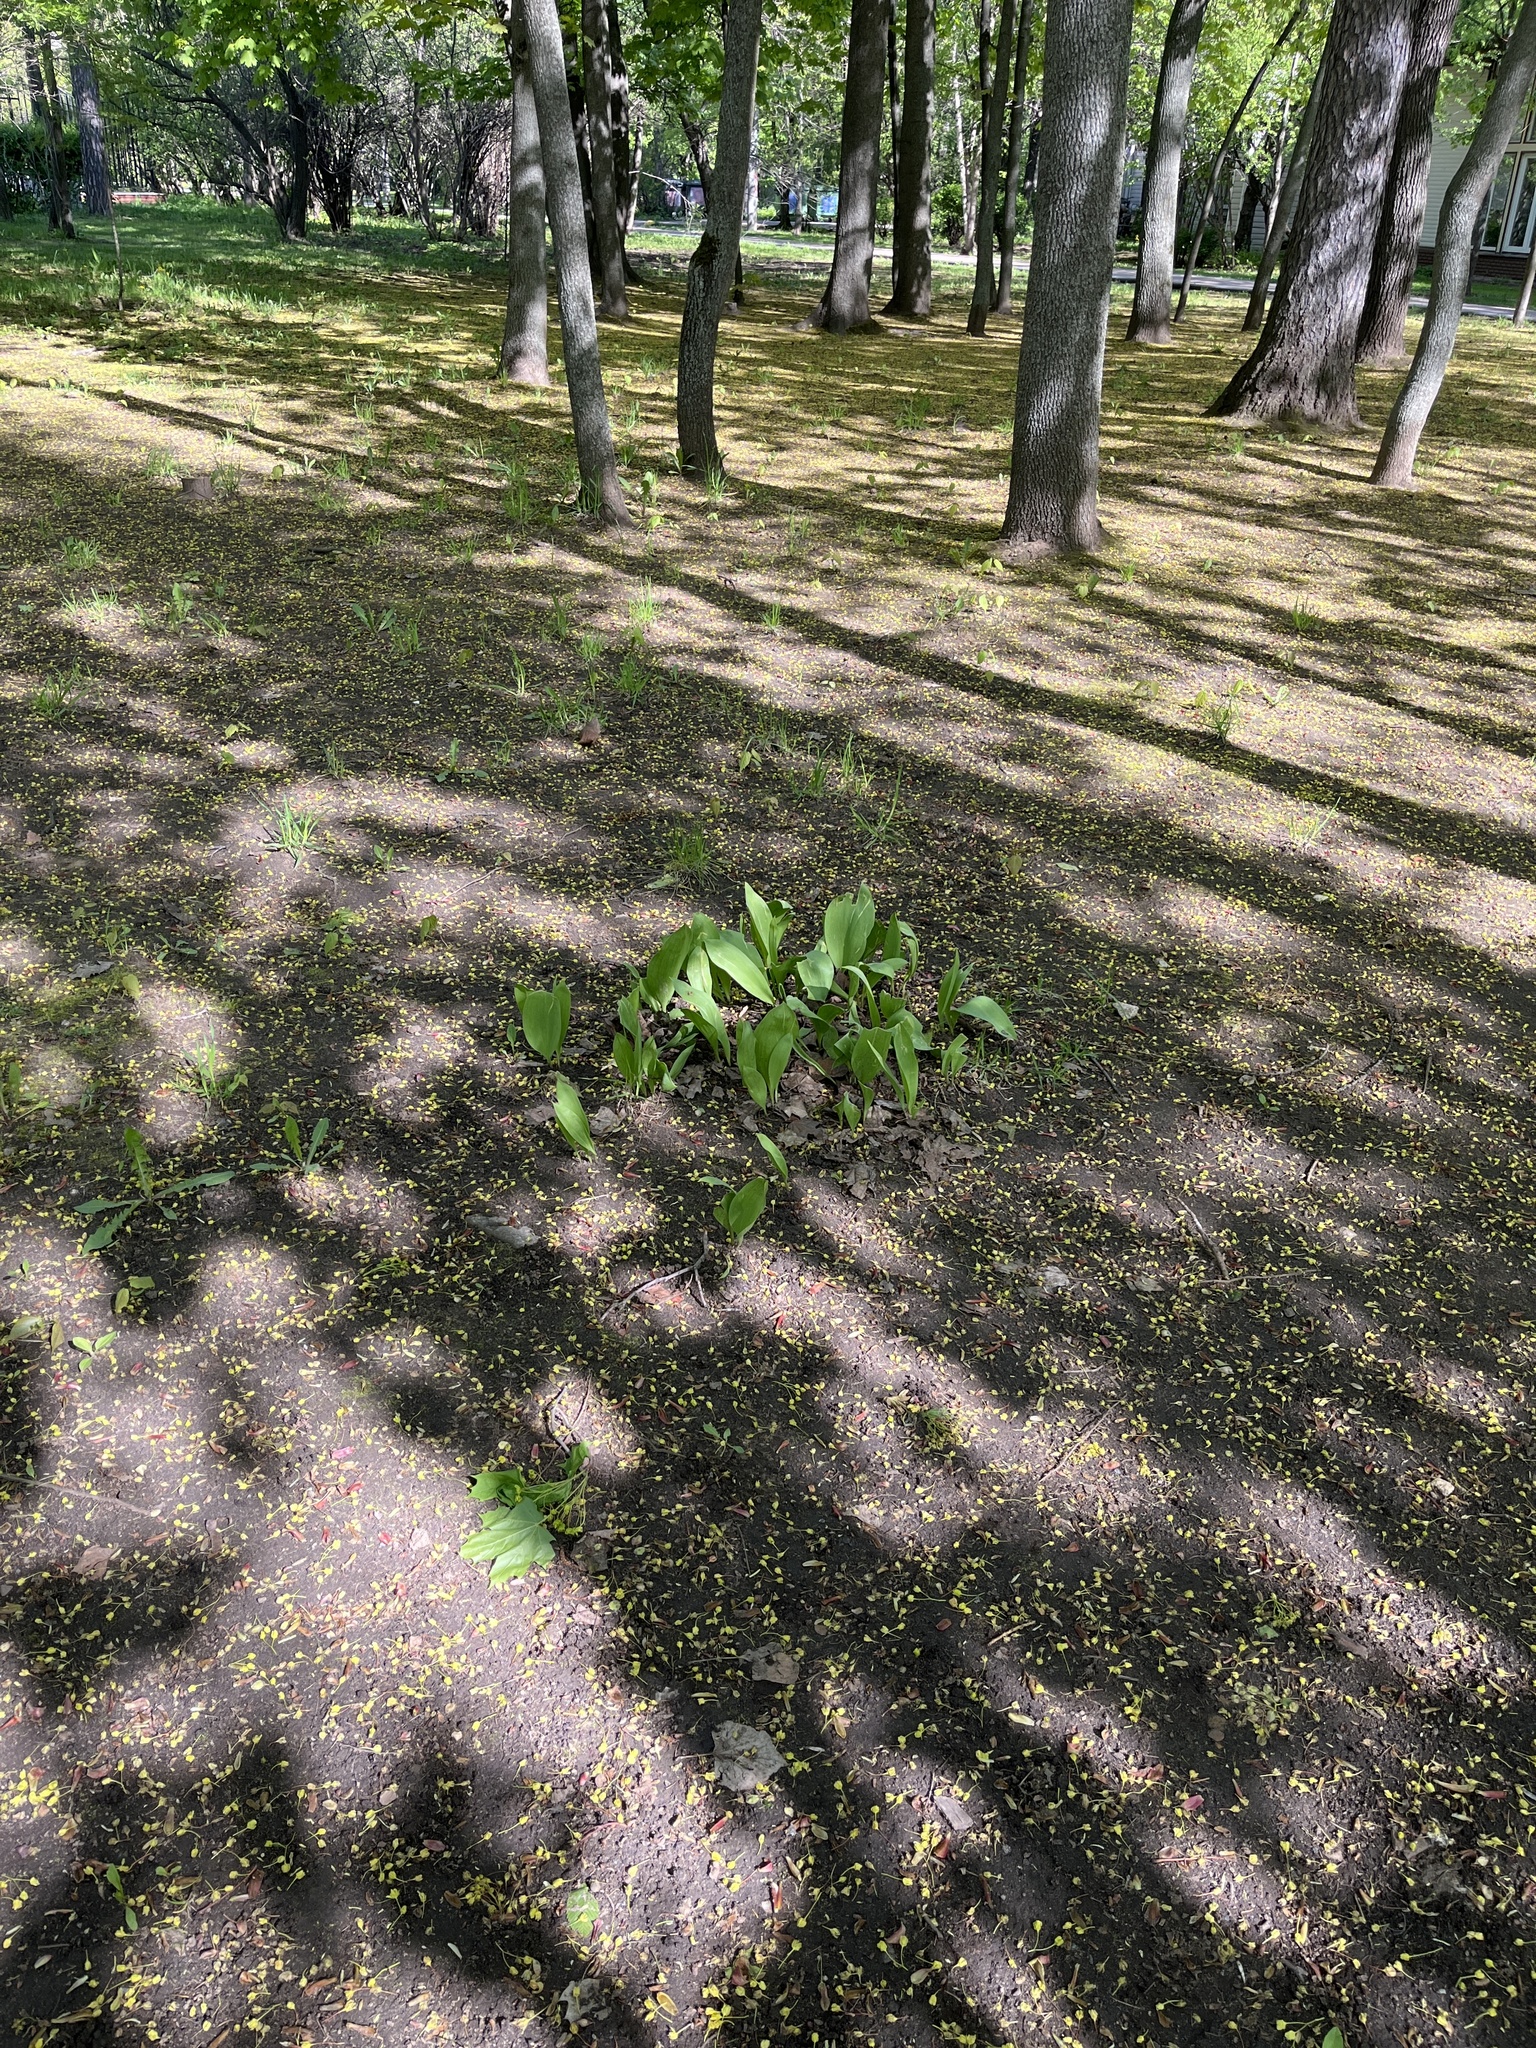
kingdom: Plantae
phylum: Tracheophyta
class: Liliopsida
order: Liliales
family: Liliaceae
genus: Tulipa
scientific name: Tulipa gesneriana
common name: Garden tulip
